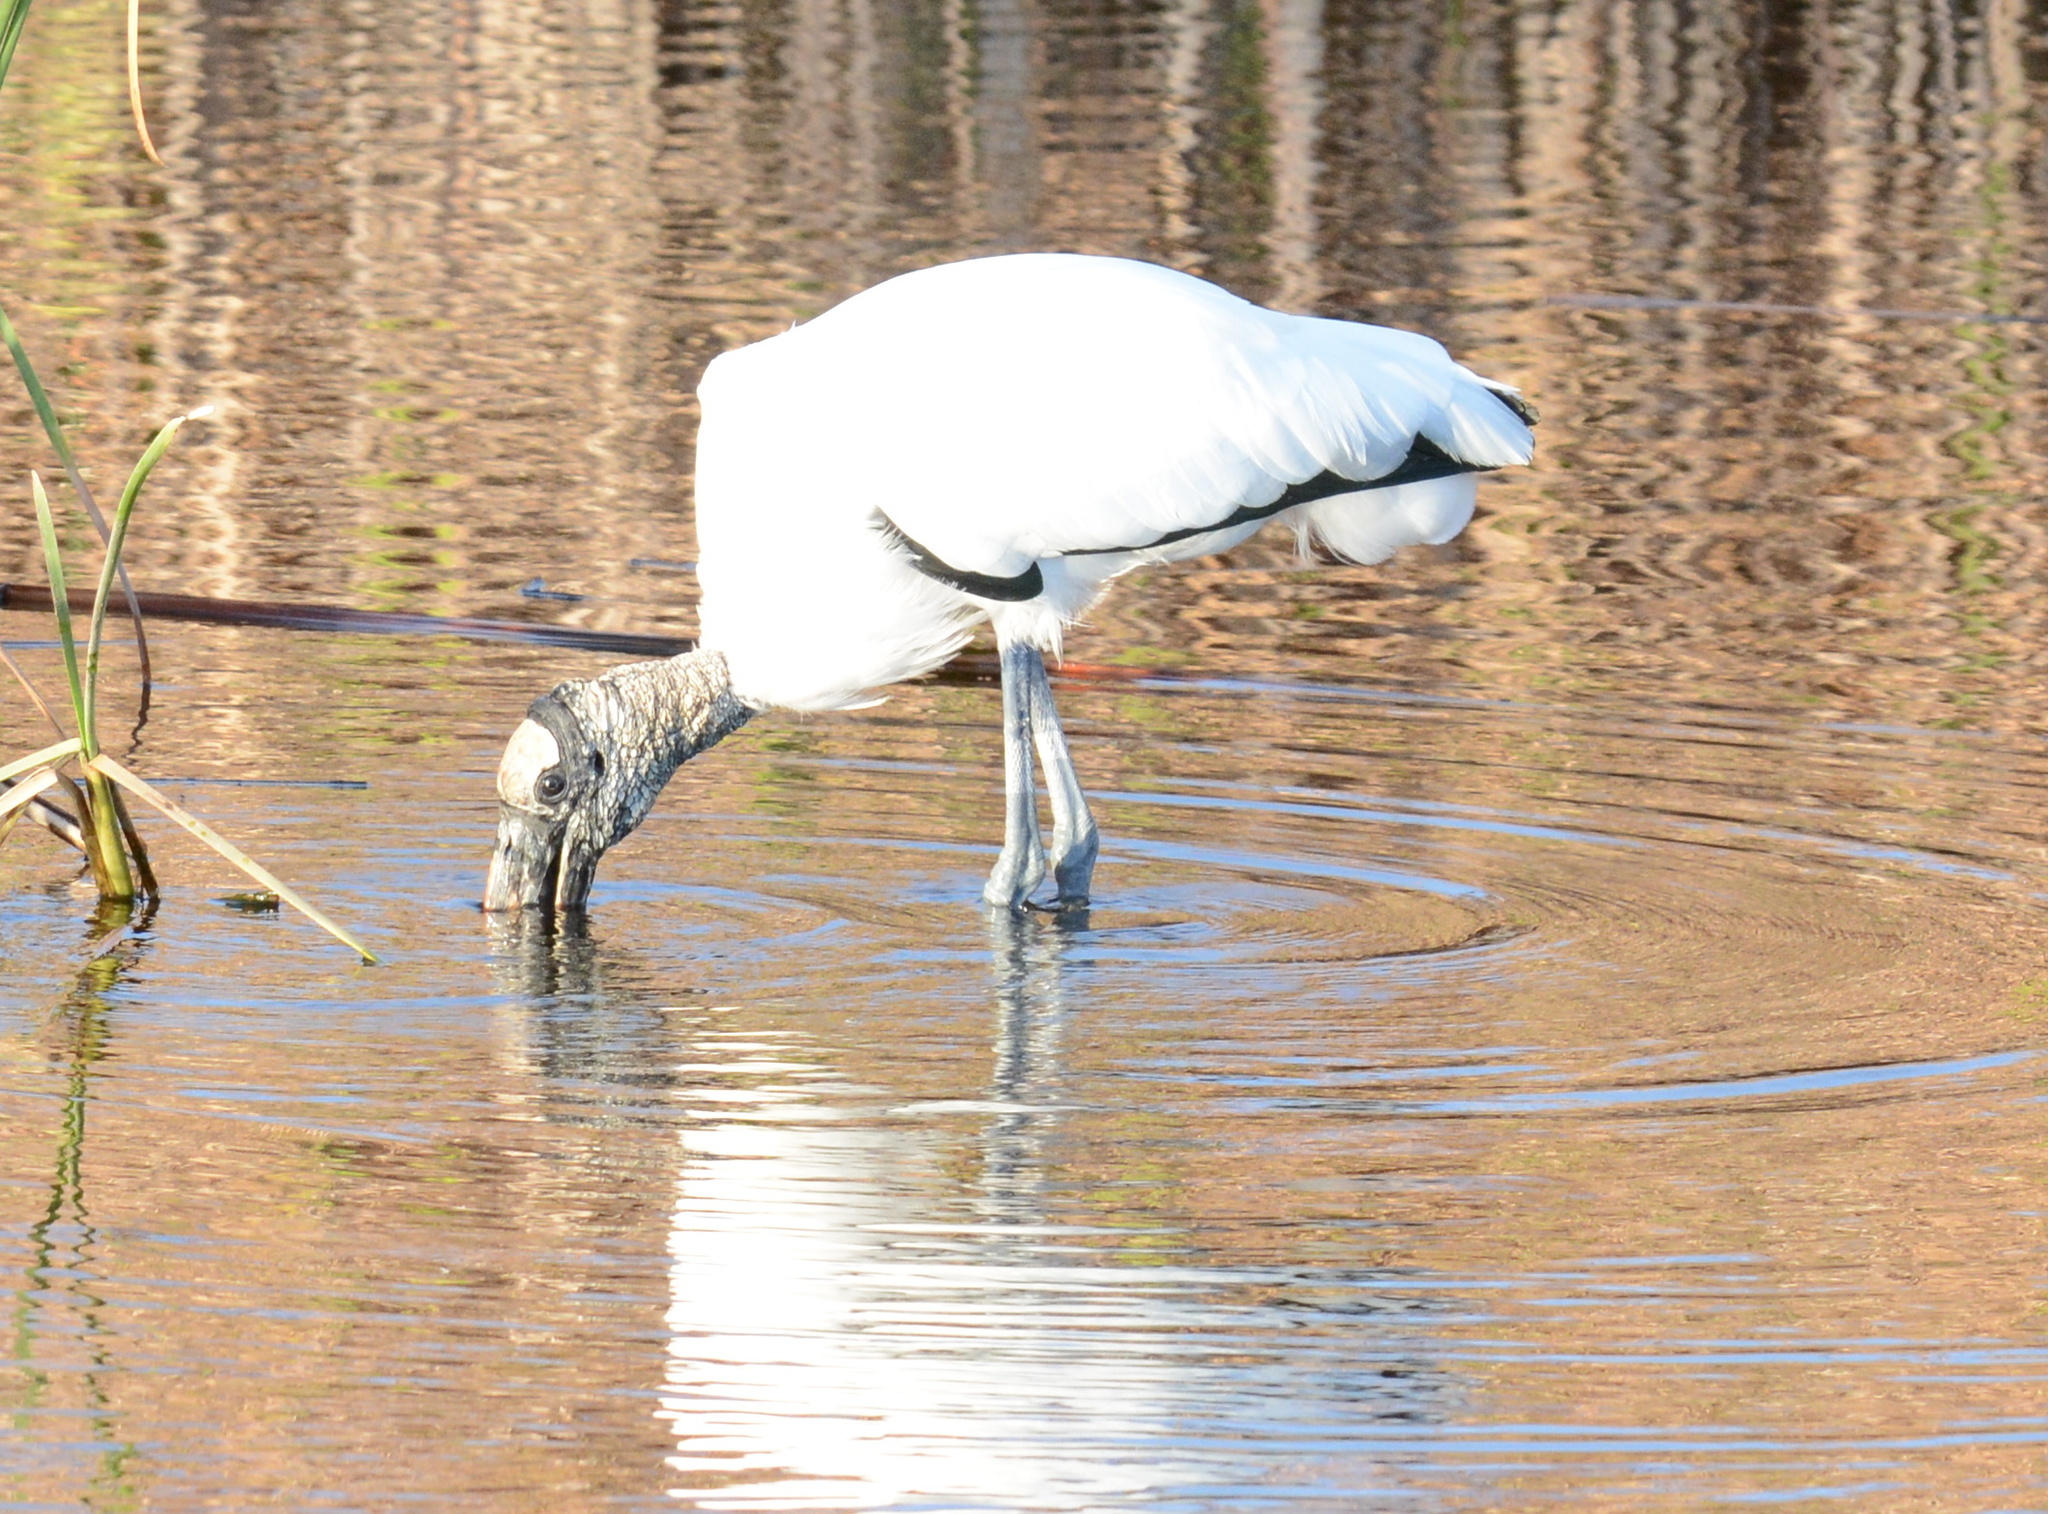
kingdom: Animalia
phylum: Chordata
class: Aves
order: Ciconiiformes
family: Ciconiidae
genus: Mycteria
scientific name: Mycteria americana
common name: Wood stork
